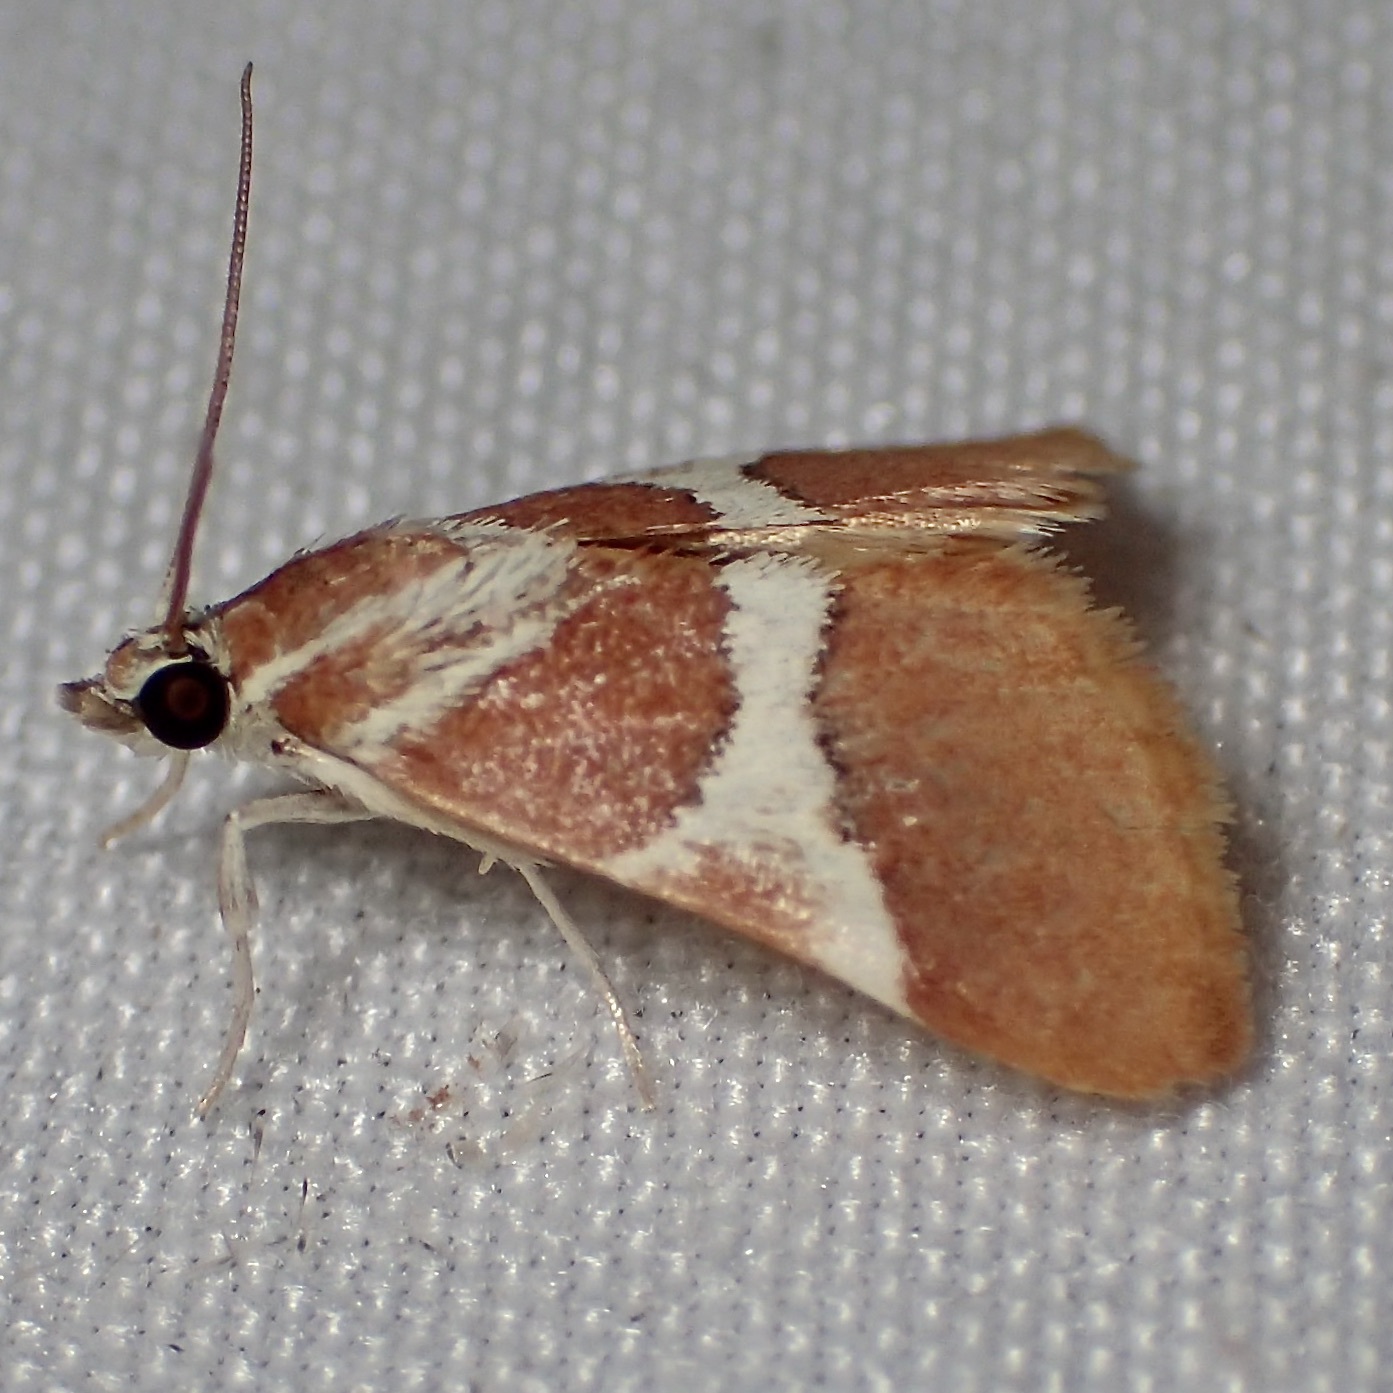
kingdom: Animalia
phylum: Arthropoda
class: Insecta
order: Lepidoptera
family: Crambidae
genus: Jativa
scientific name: Jativa castanealis
